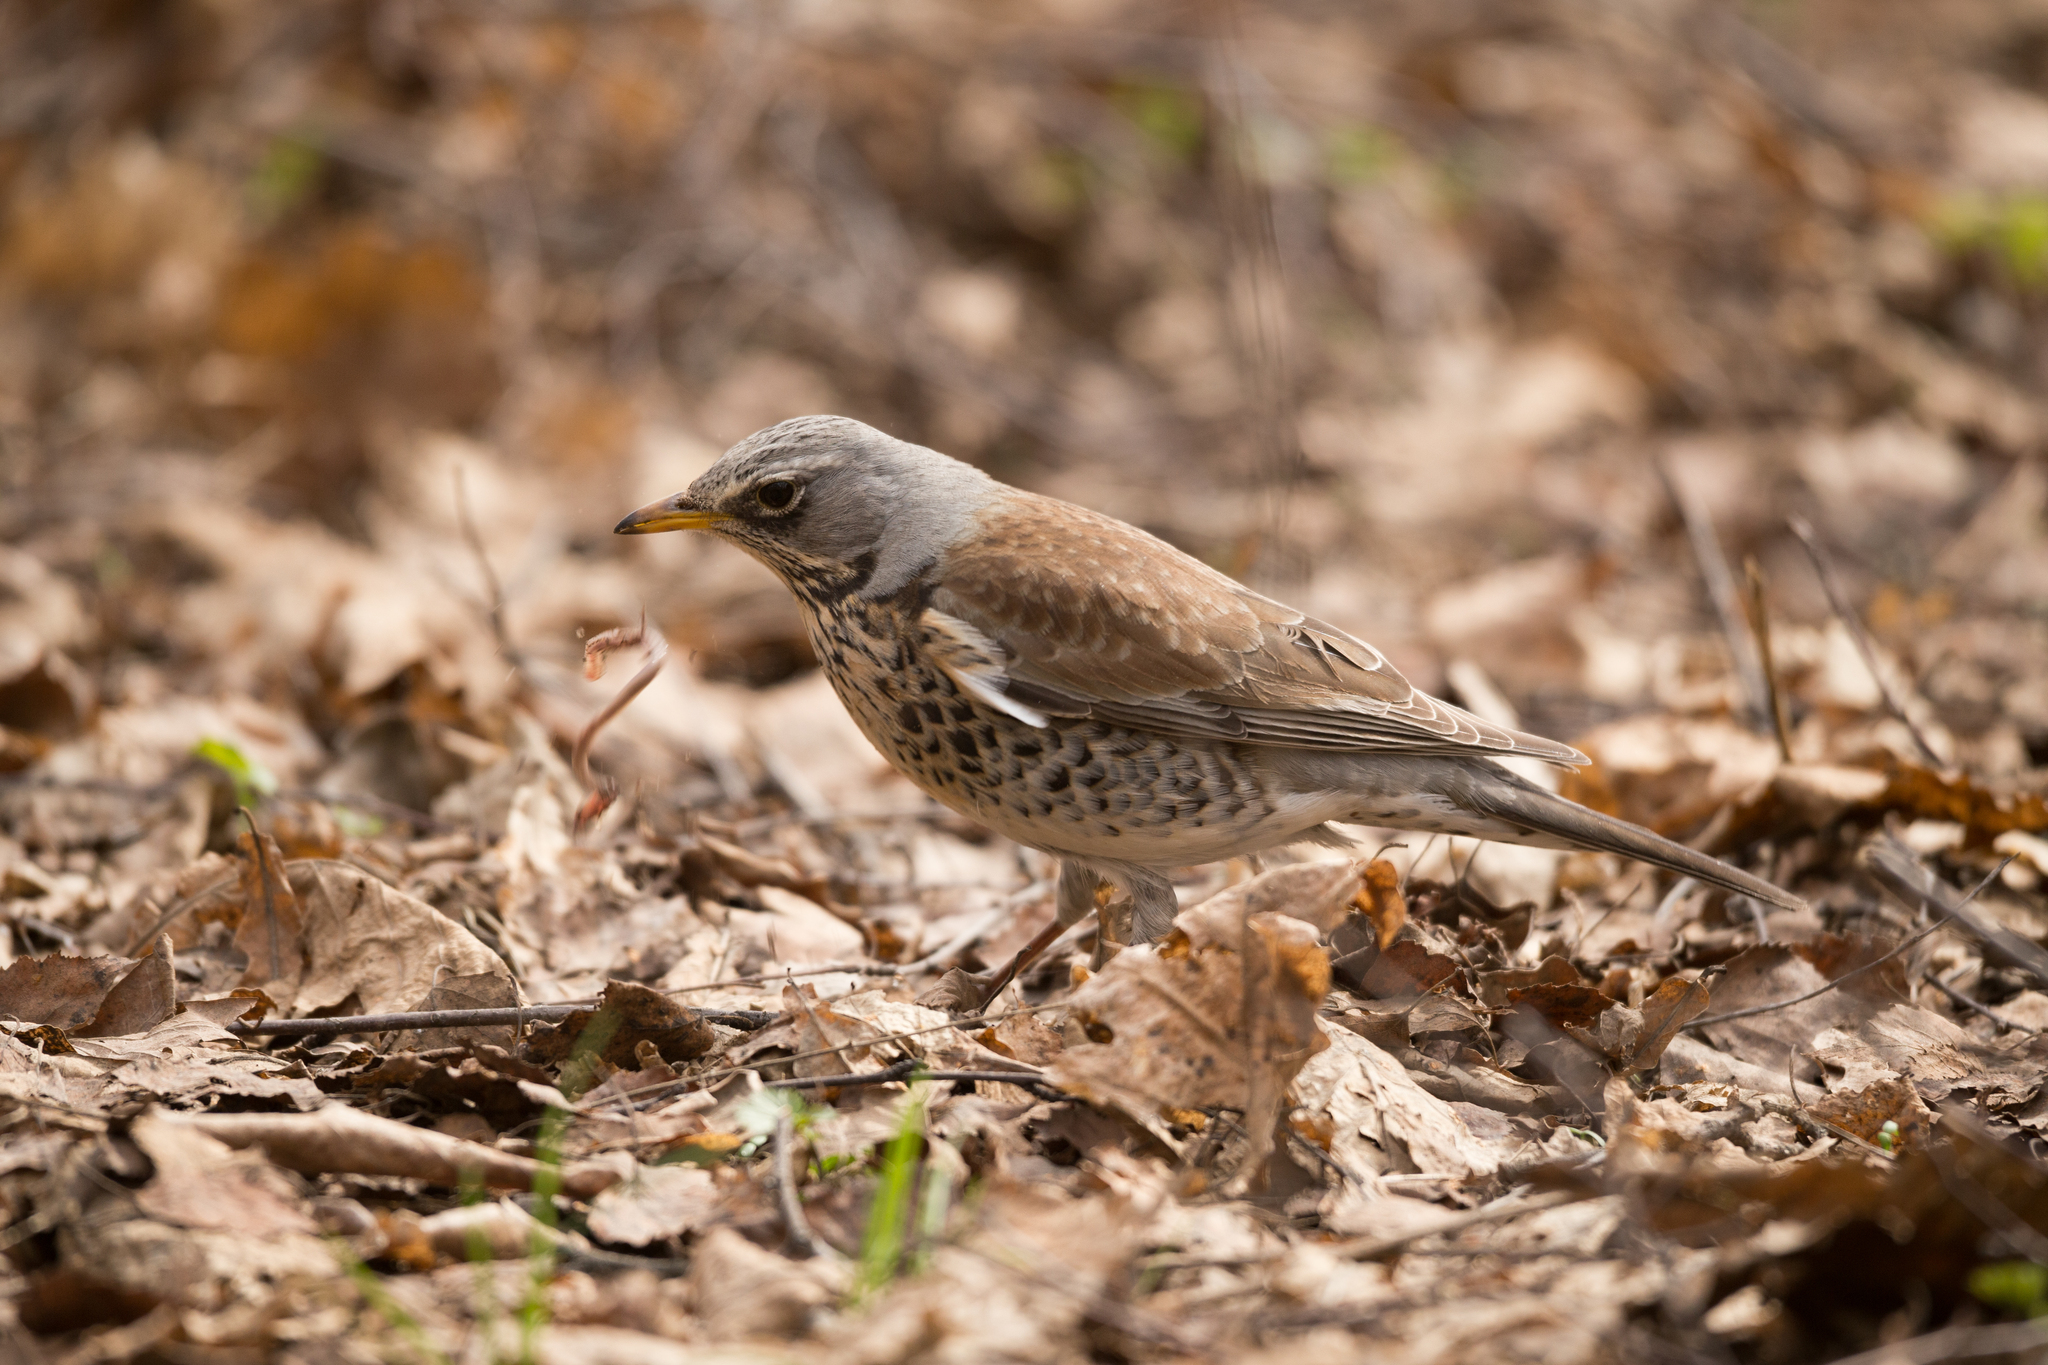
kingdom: Animalia
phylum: Chordata
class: Aves
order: Passeriformes
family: Turdidae
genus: Turdus
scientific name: Turdus pilaris
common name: Fieldfare
